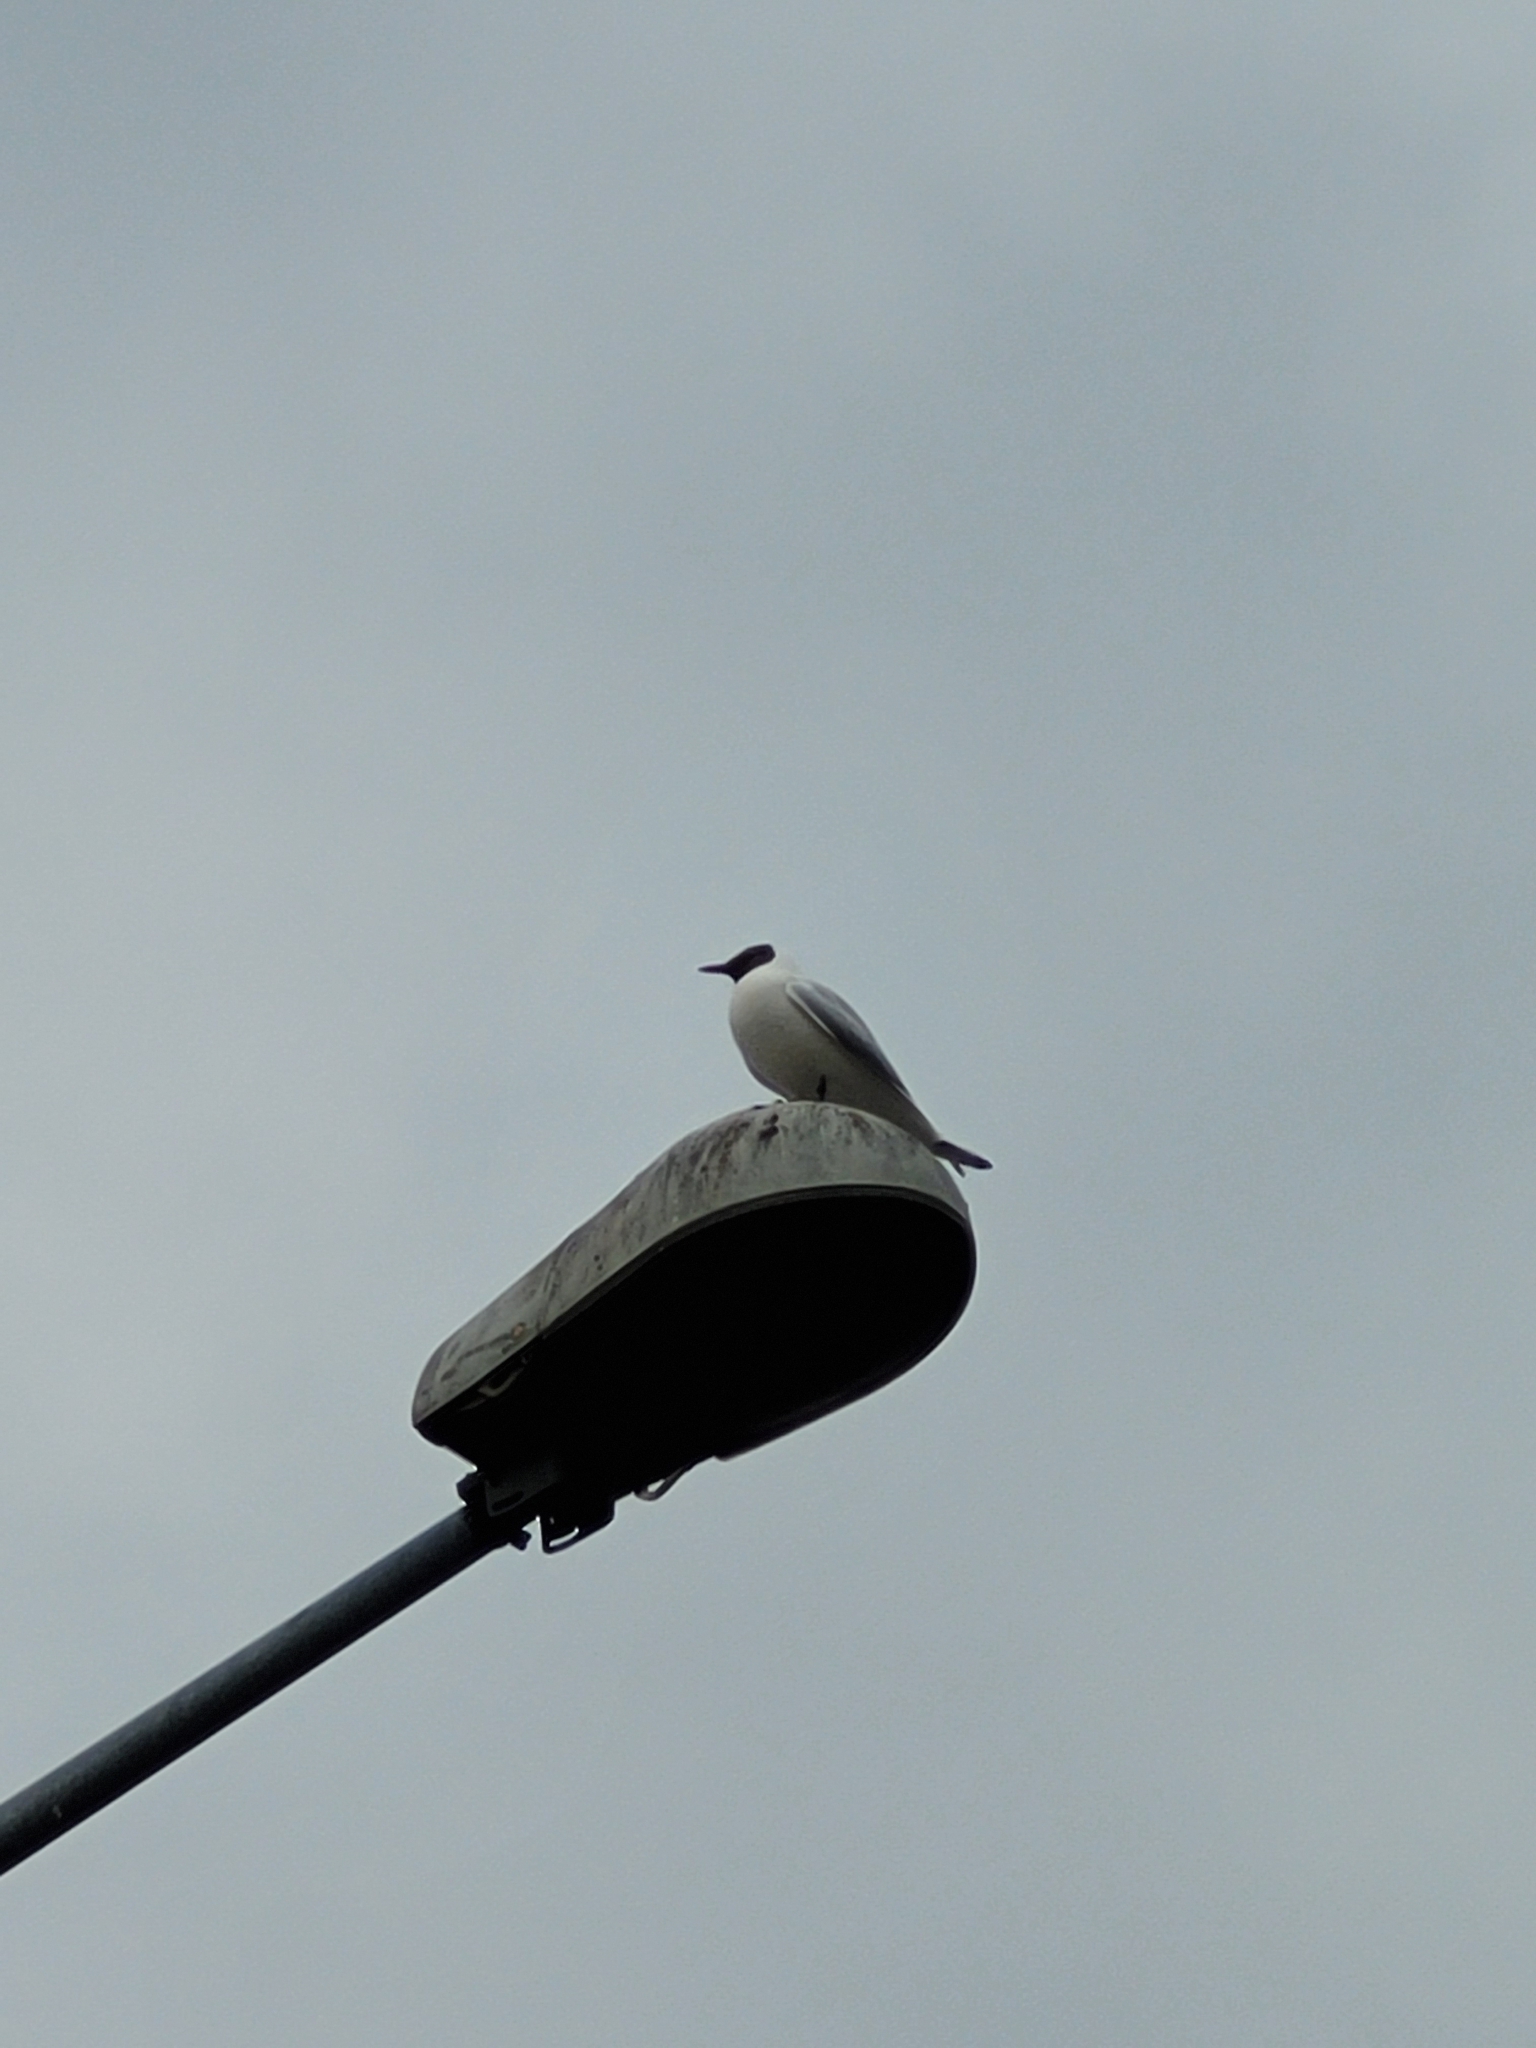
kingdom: Animalia
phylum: Chordata
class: Aves
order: Charadriiformes
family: Laridae
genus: Chroicocephalus
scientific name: Chroicocephalus ridibundus
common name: Black-headed gull
